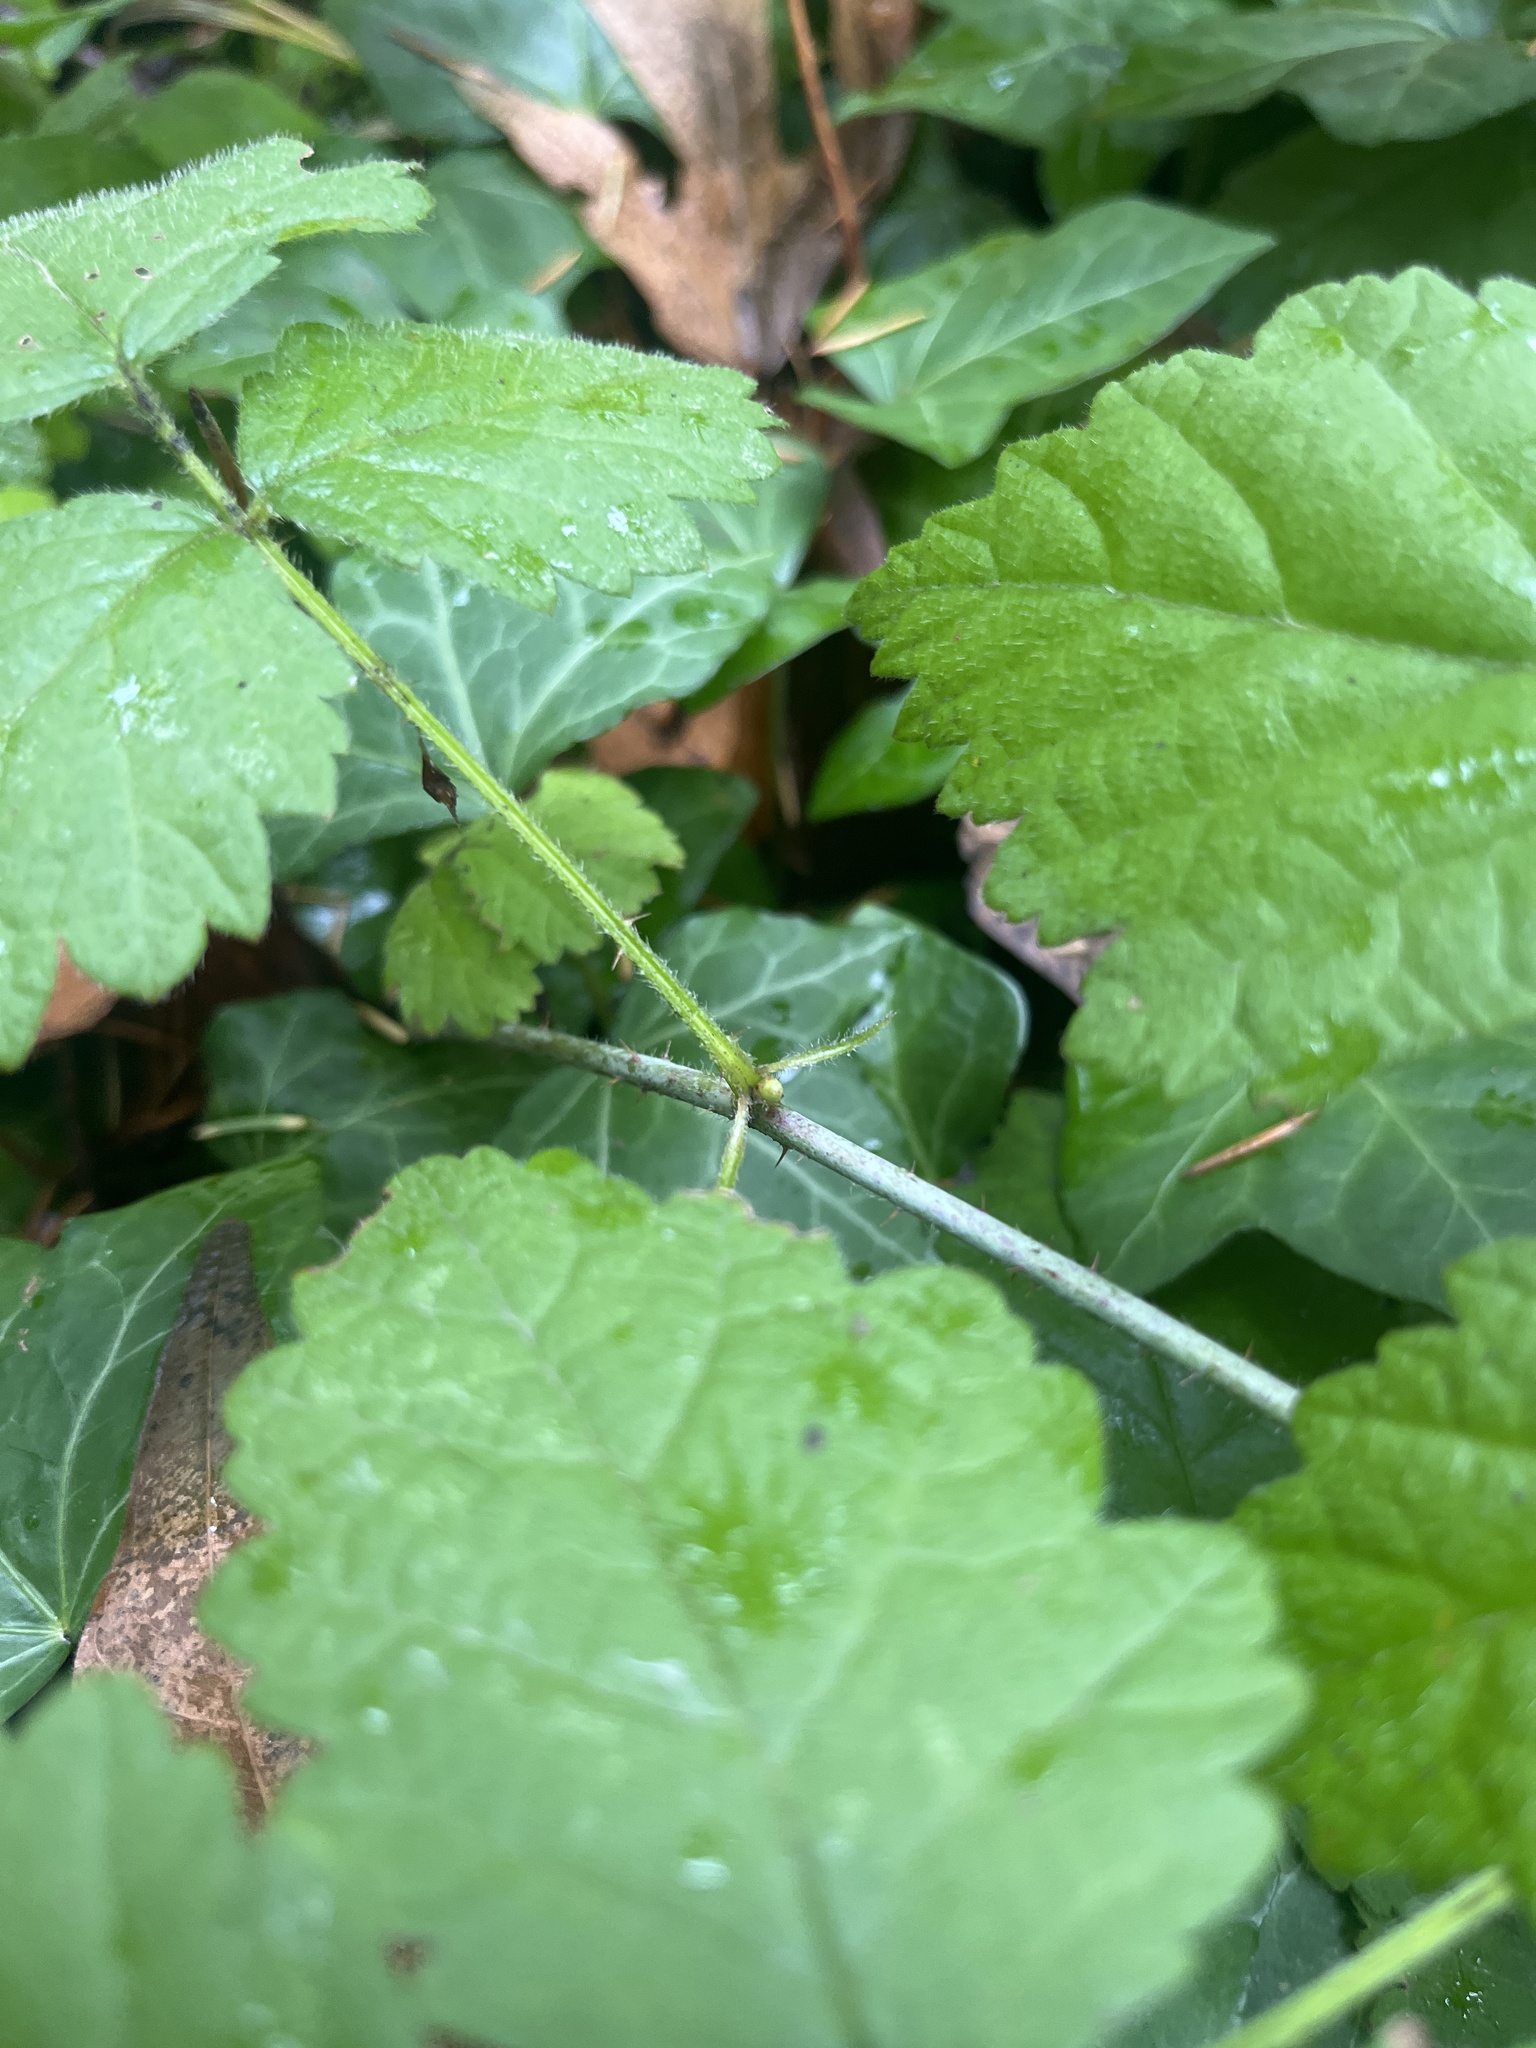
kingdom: Plantae
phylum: Tracheophyta
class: Magnoliopsida
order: Rosales
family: Rosaceae
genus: Rubus
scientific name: Rubus ursinus
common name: Pacific blackberry
